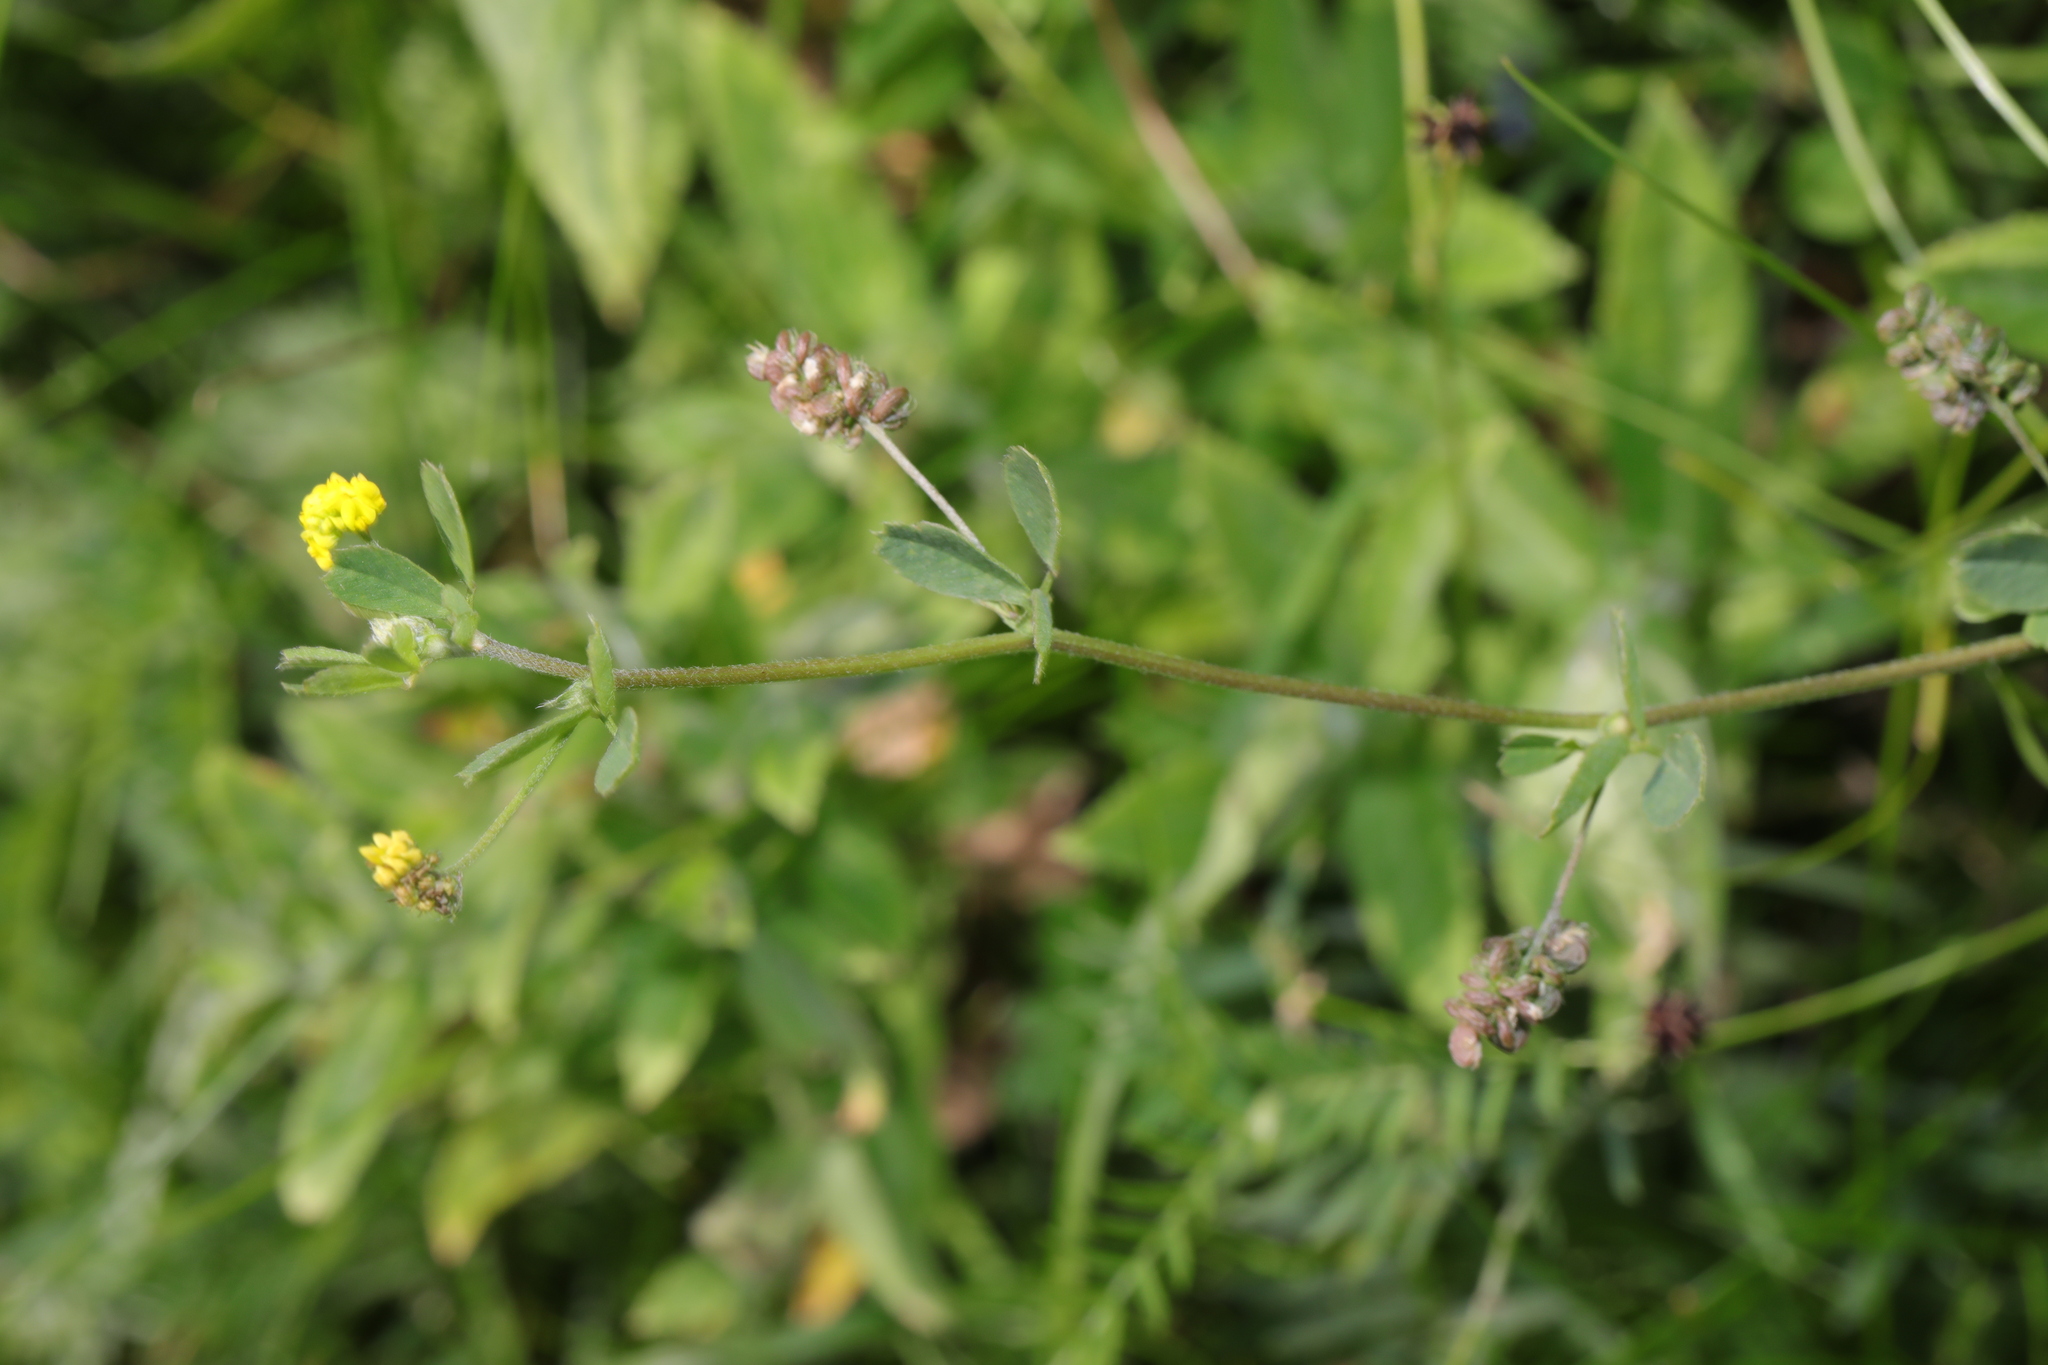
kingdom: Plantae
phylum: Tracheophyta
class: Magnoliopsida
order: Fabales
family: Fabaceae
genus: Medicago
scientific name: Medicago lupulina
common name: Black medick
